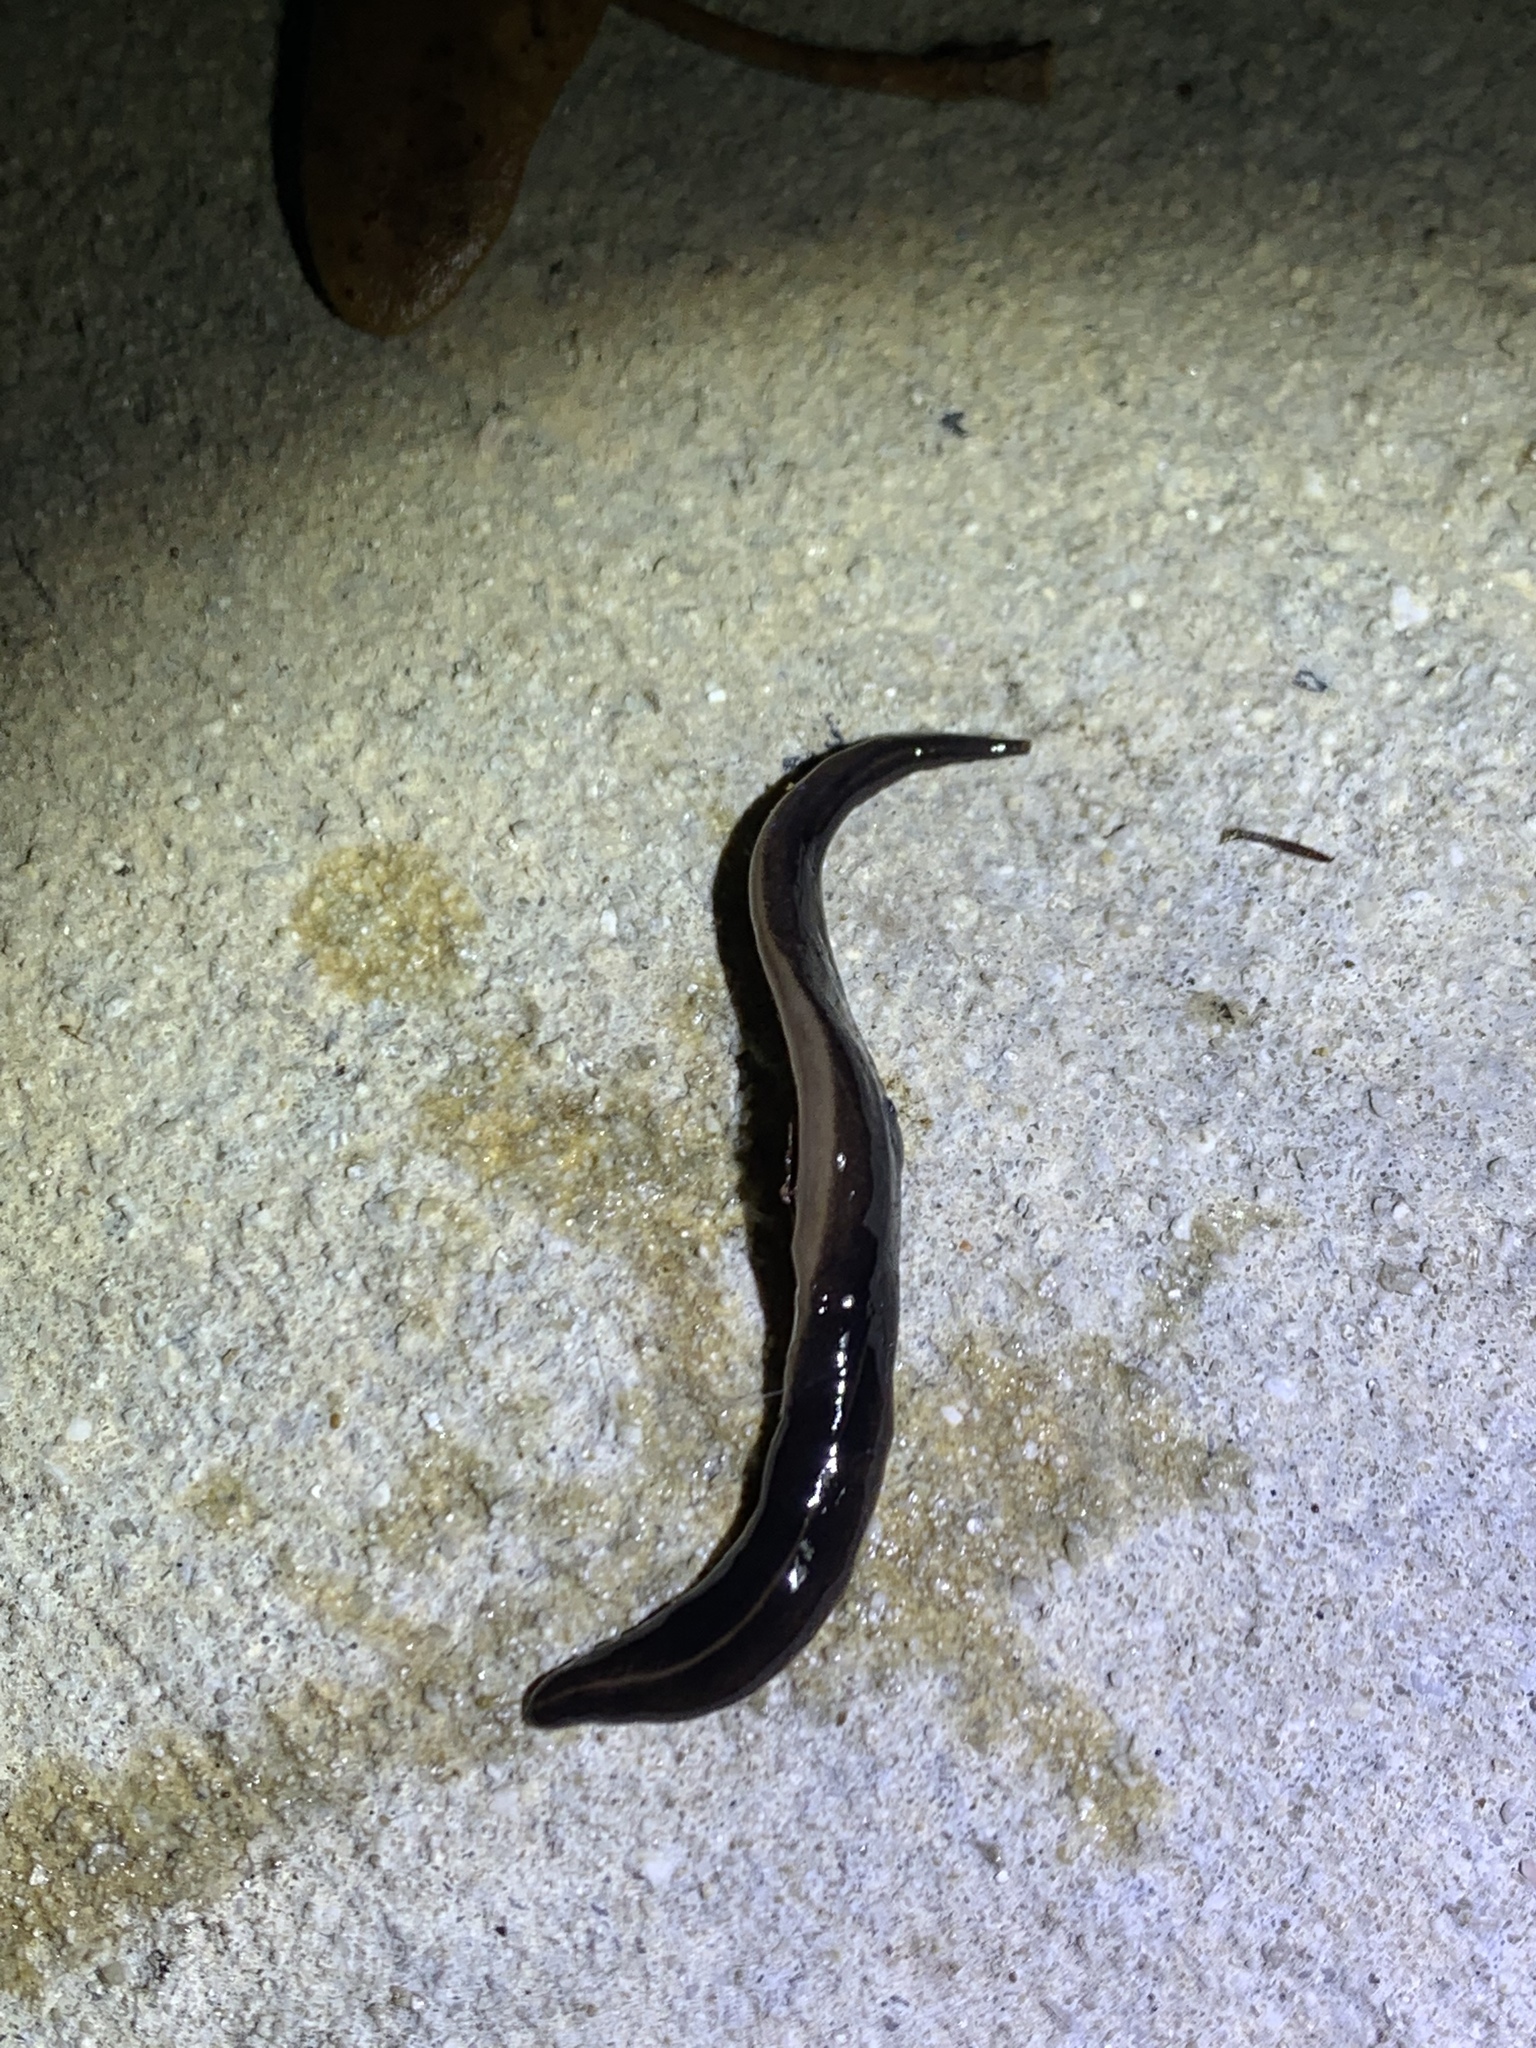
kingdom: Animalia
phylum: Platyhelminthes
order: Tricladida
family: Geoplanidae
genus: Platydemus
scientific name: Platydemus manokwari
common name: New guinea flatworm
